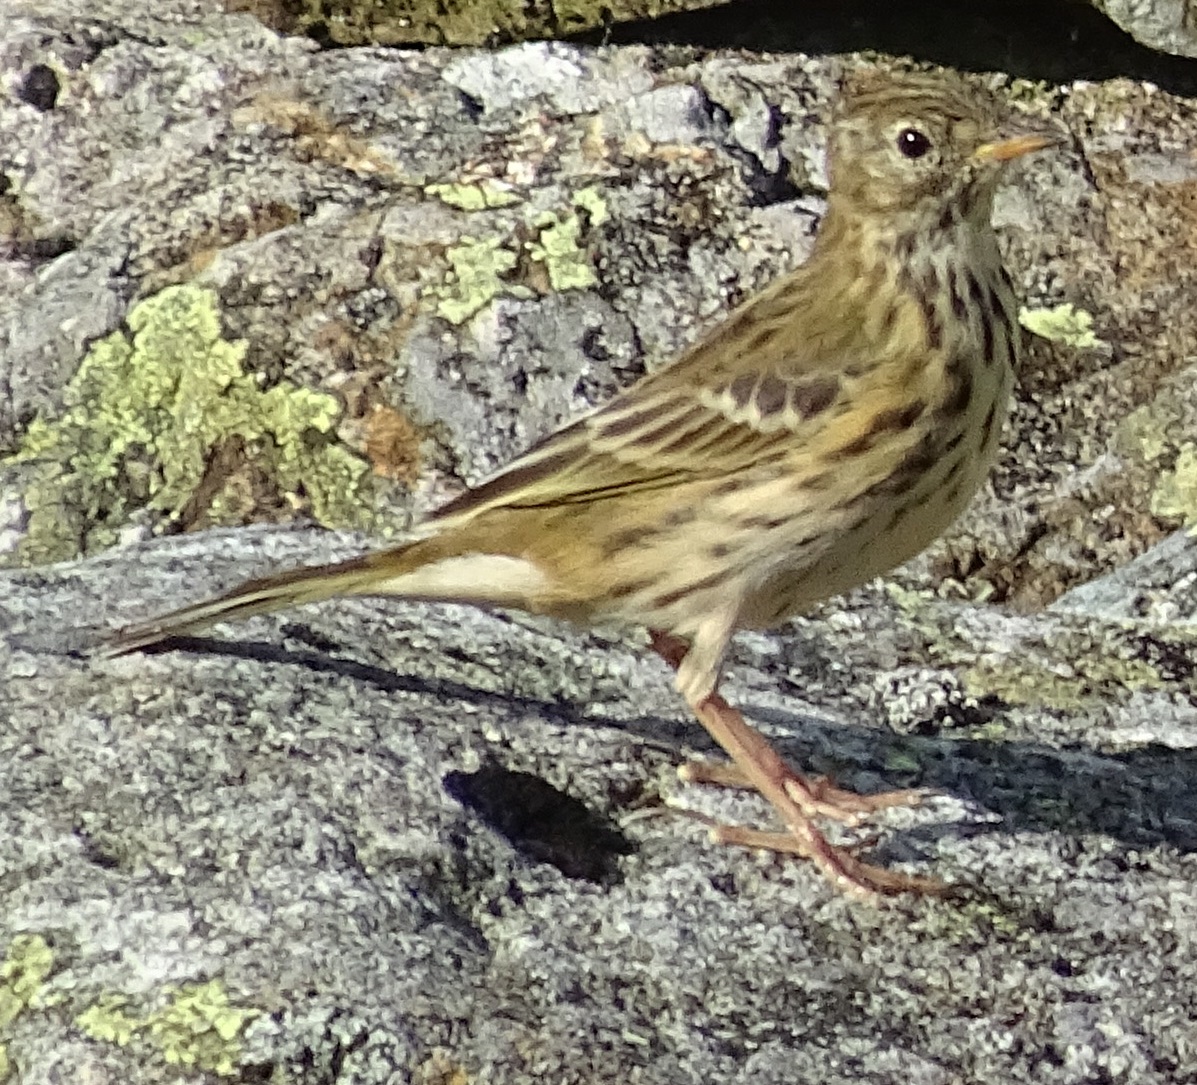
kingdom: Animalia
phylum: Chordata
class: Aves
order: Passeriformes
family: Motacillidae
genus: Anthus
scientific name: Anthus pratensis
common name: Meadow pipit
